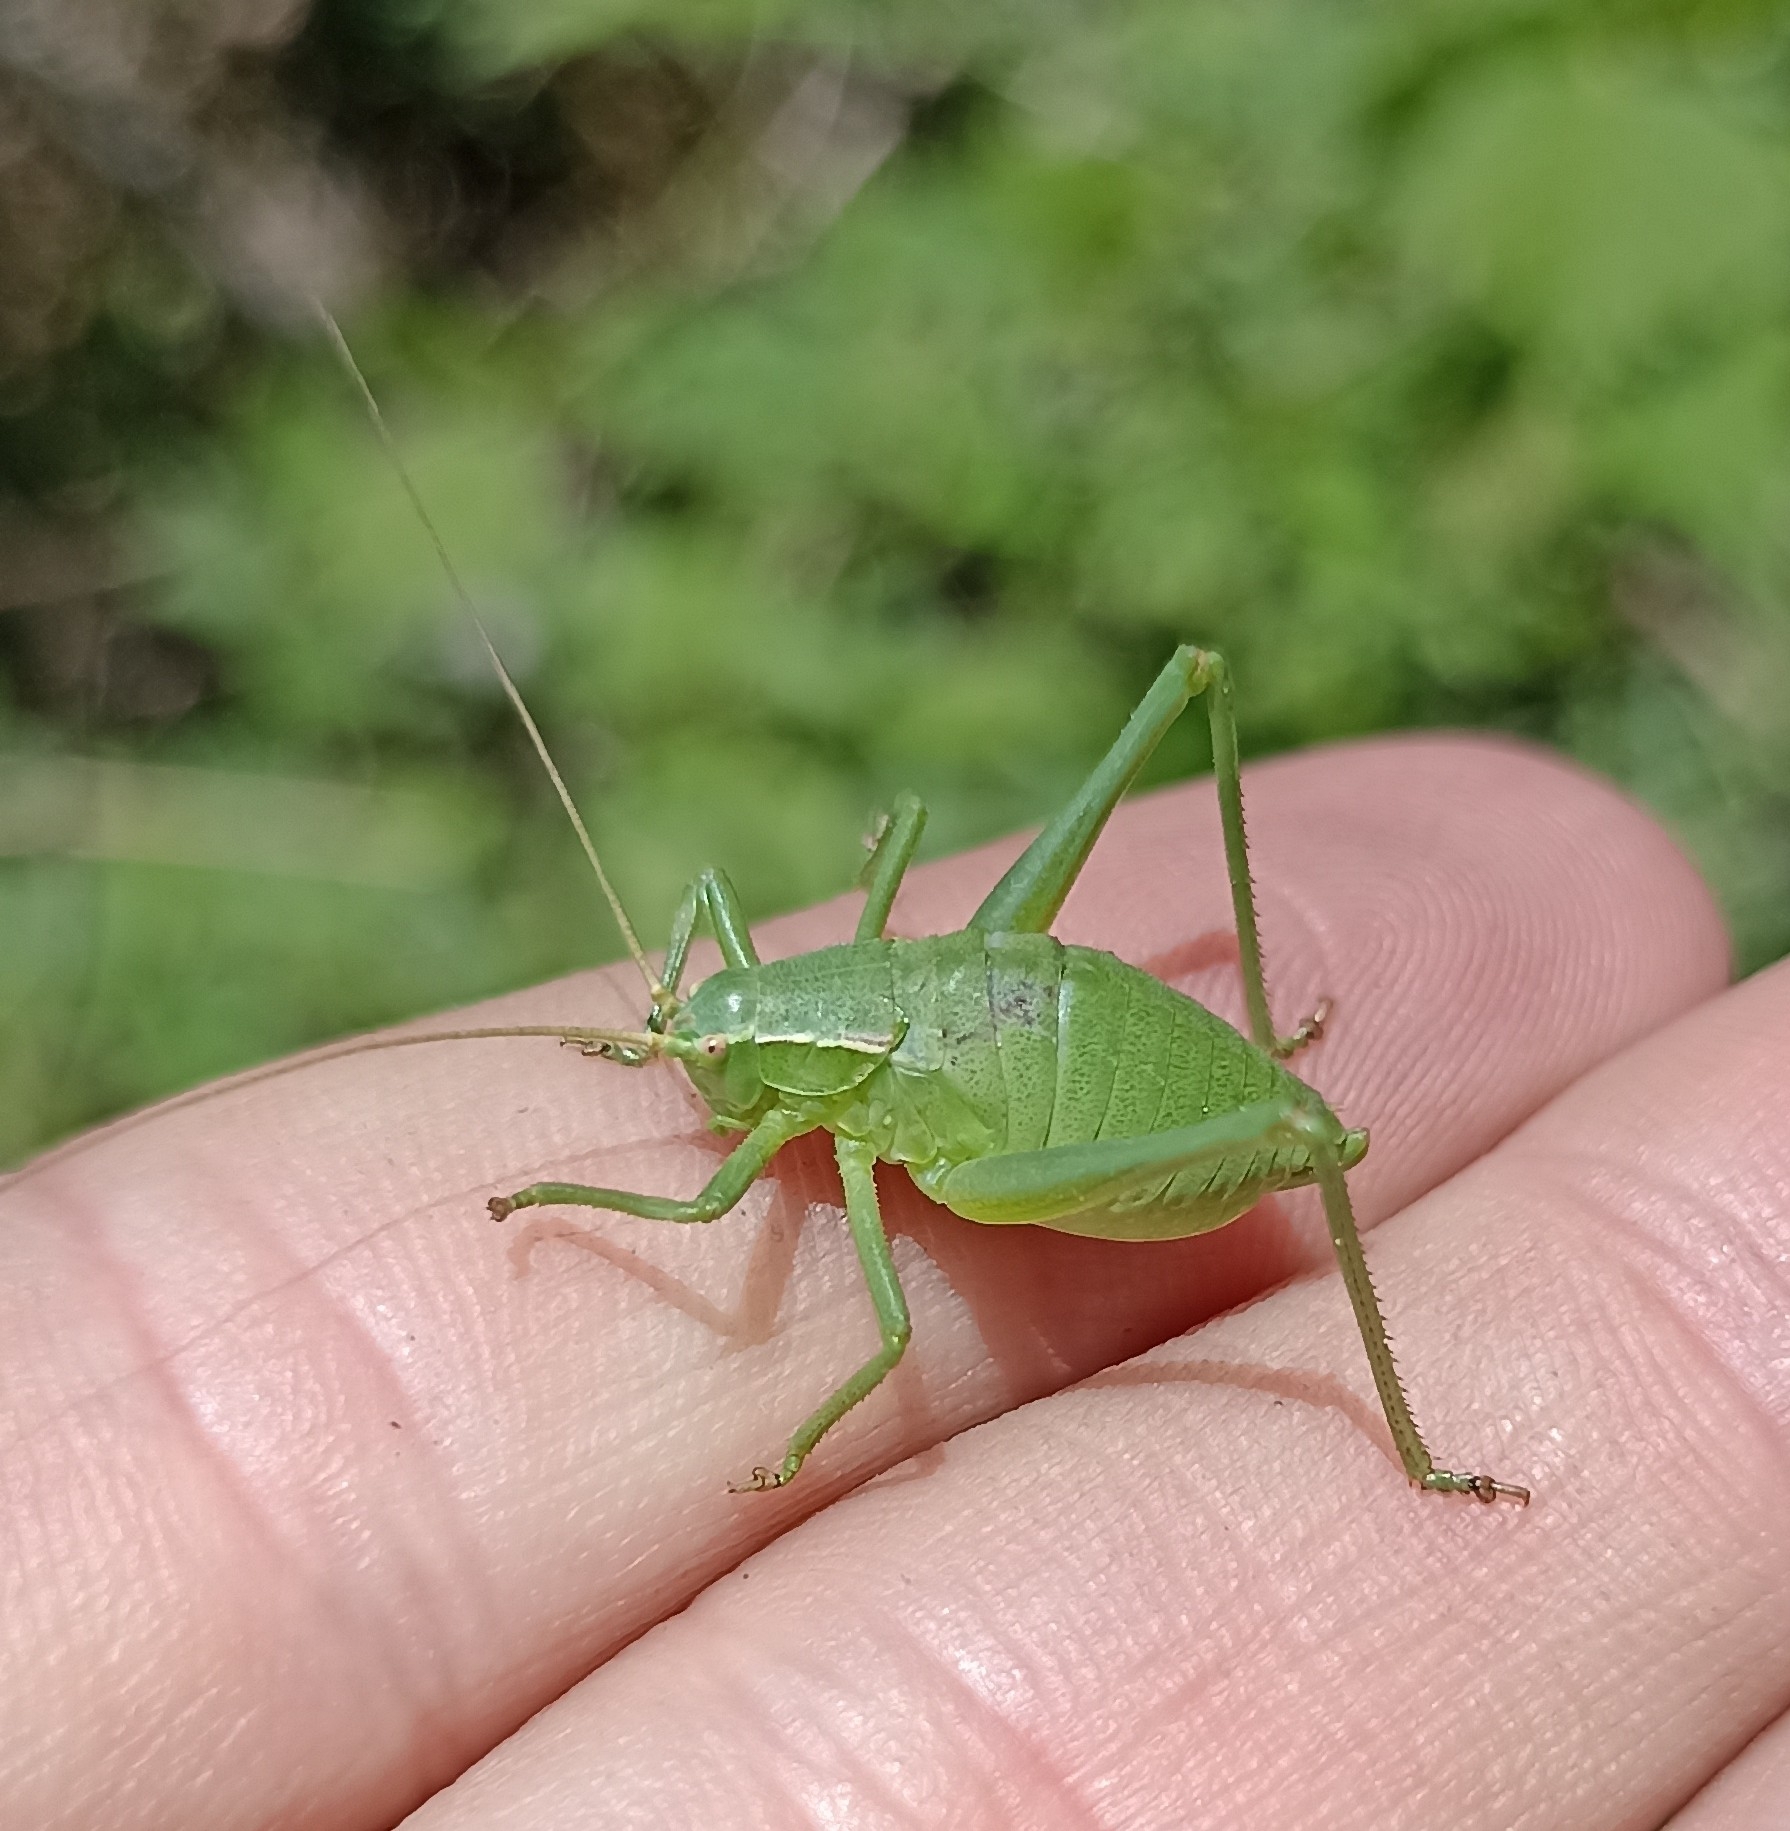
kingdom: Animalia
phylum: Arthropoda
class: Insecta
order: Orthoptera
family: Tettigoniidae
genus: Isophya
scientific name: Isophya pyrenaea
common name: Pyrenean plump bush-cricket
